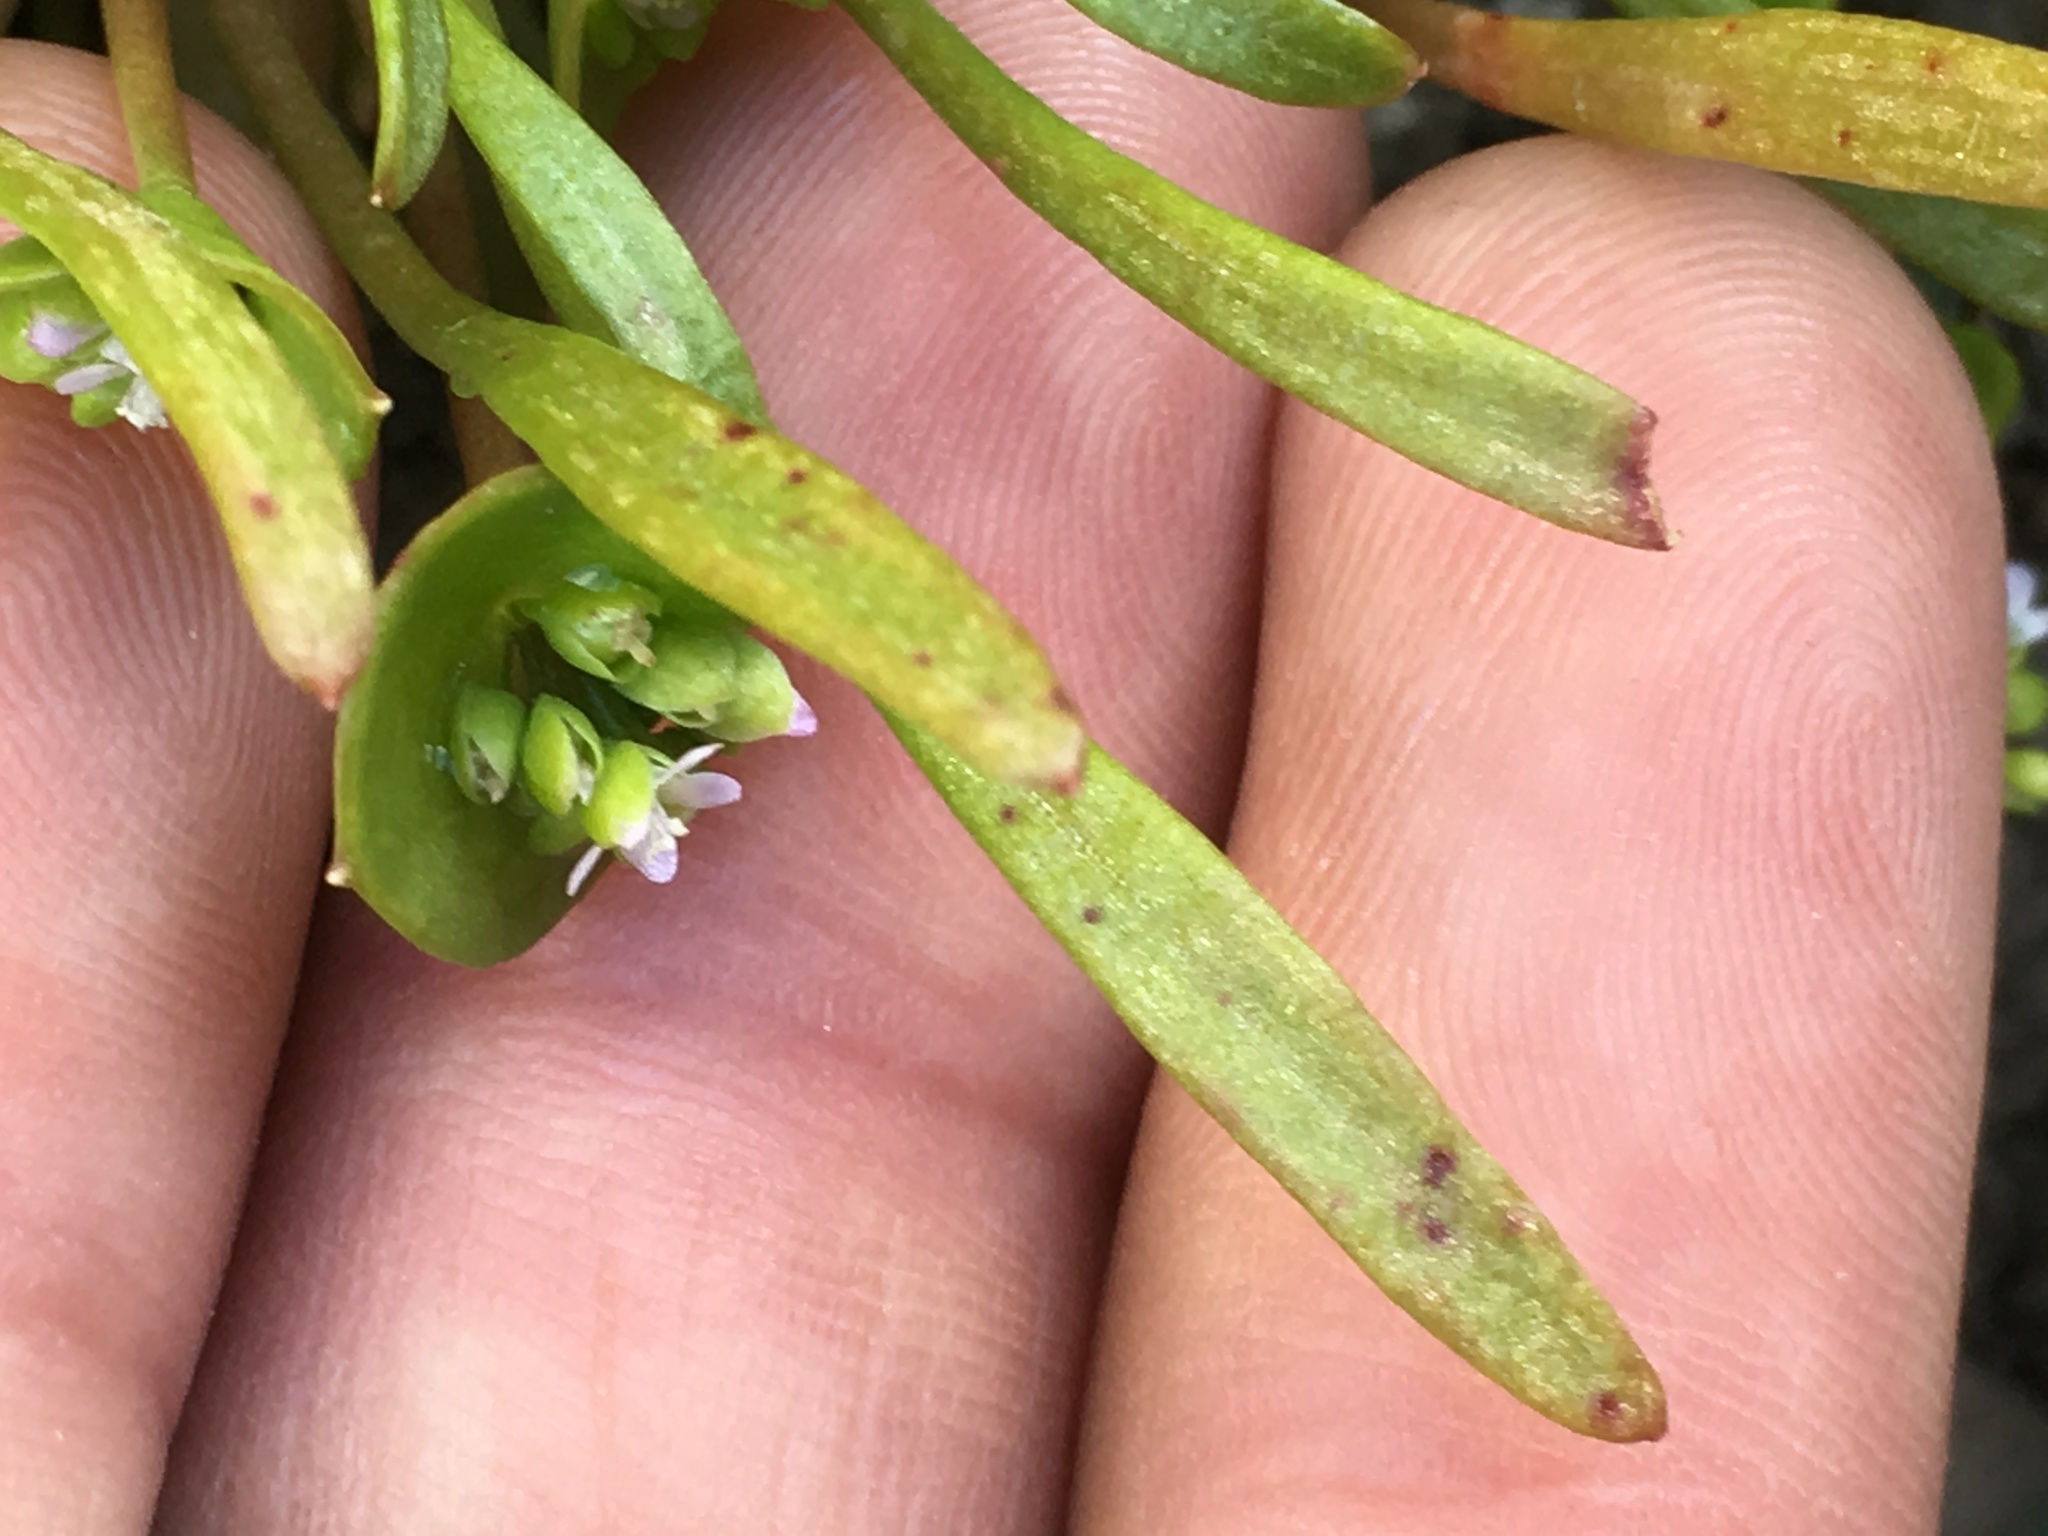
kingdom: Plantae
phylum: Tracheophyta
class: Magnoliopsida
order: Caryophyllales
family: Montiaceae
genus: Claytonia
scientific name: Claytonia parviflora
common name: Indian-lettuce
